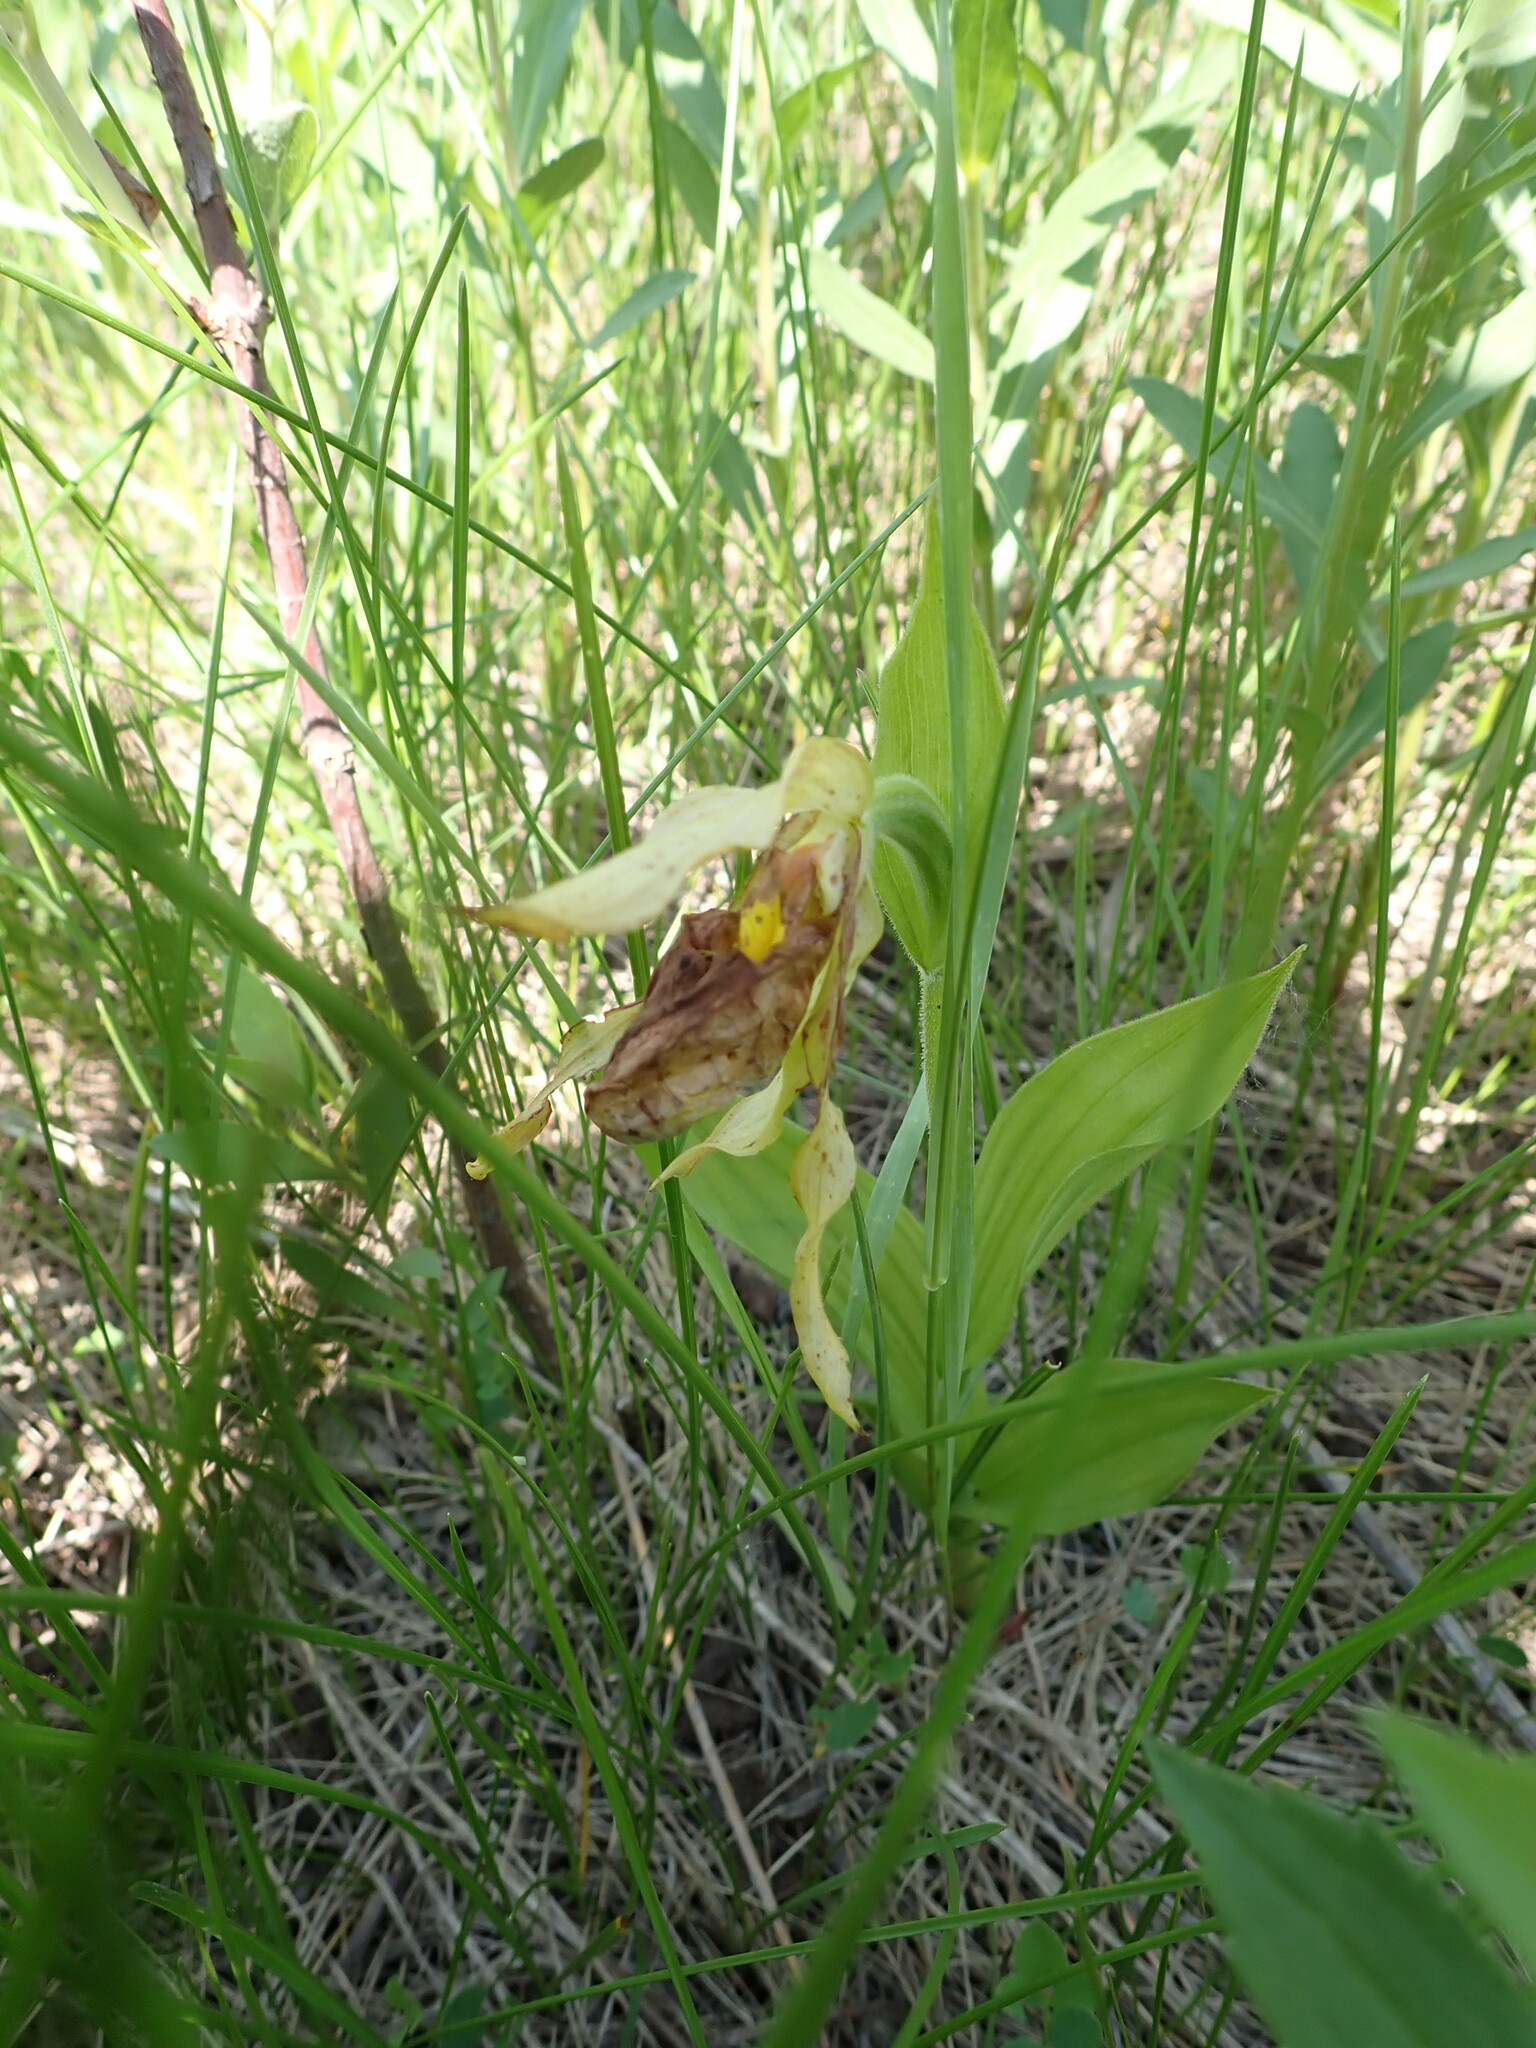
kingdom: Plantae
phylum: Tracheophyta
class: Liliopsida
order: Asparagales
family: Orchidaceae
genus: Cypripedium
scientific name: Cypripedium parviflorum
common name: American yellow lady's-slipper
